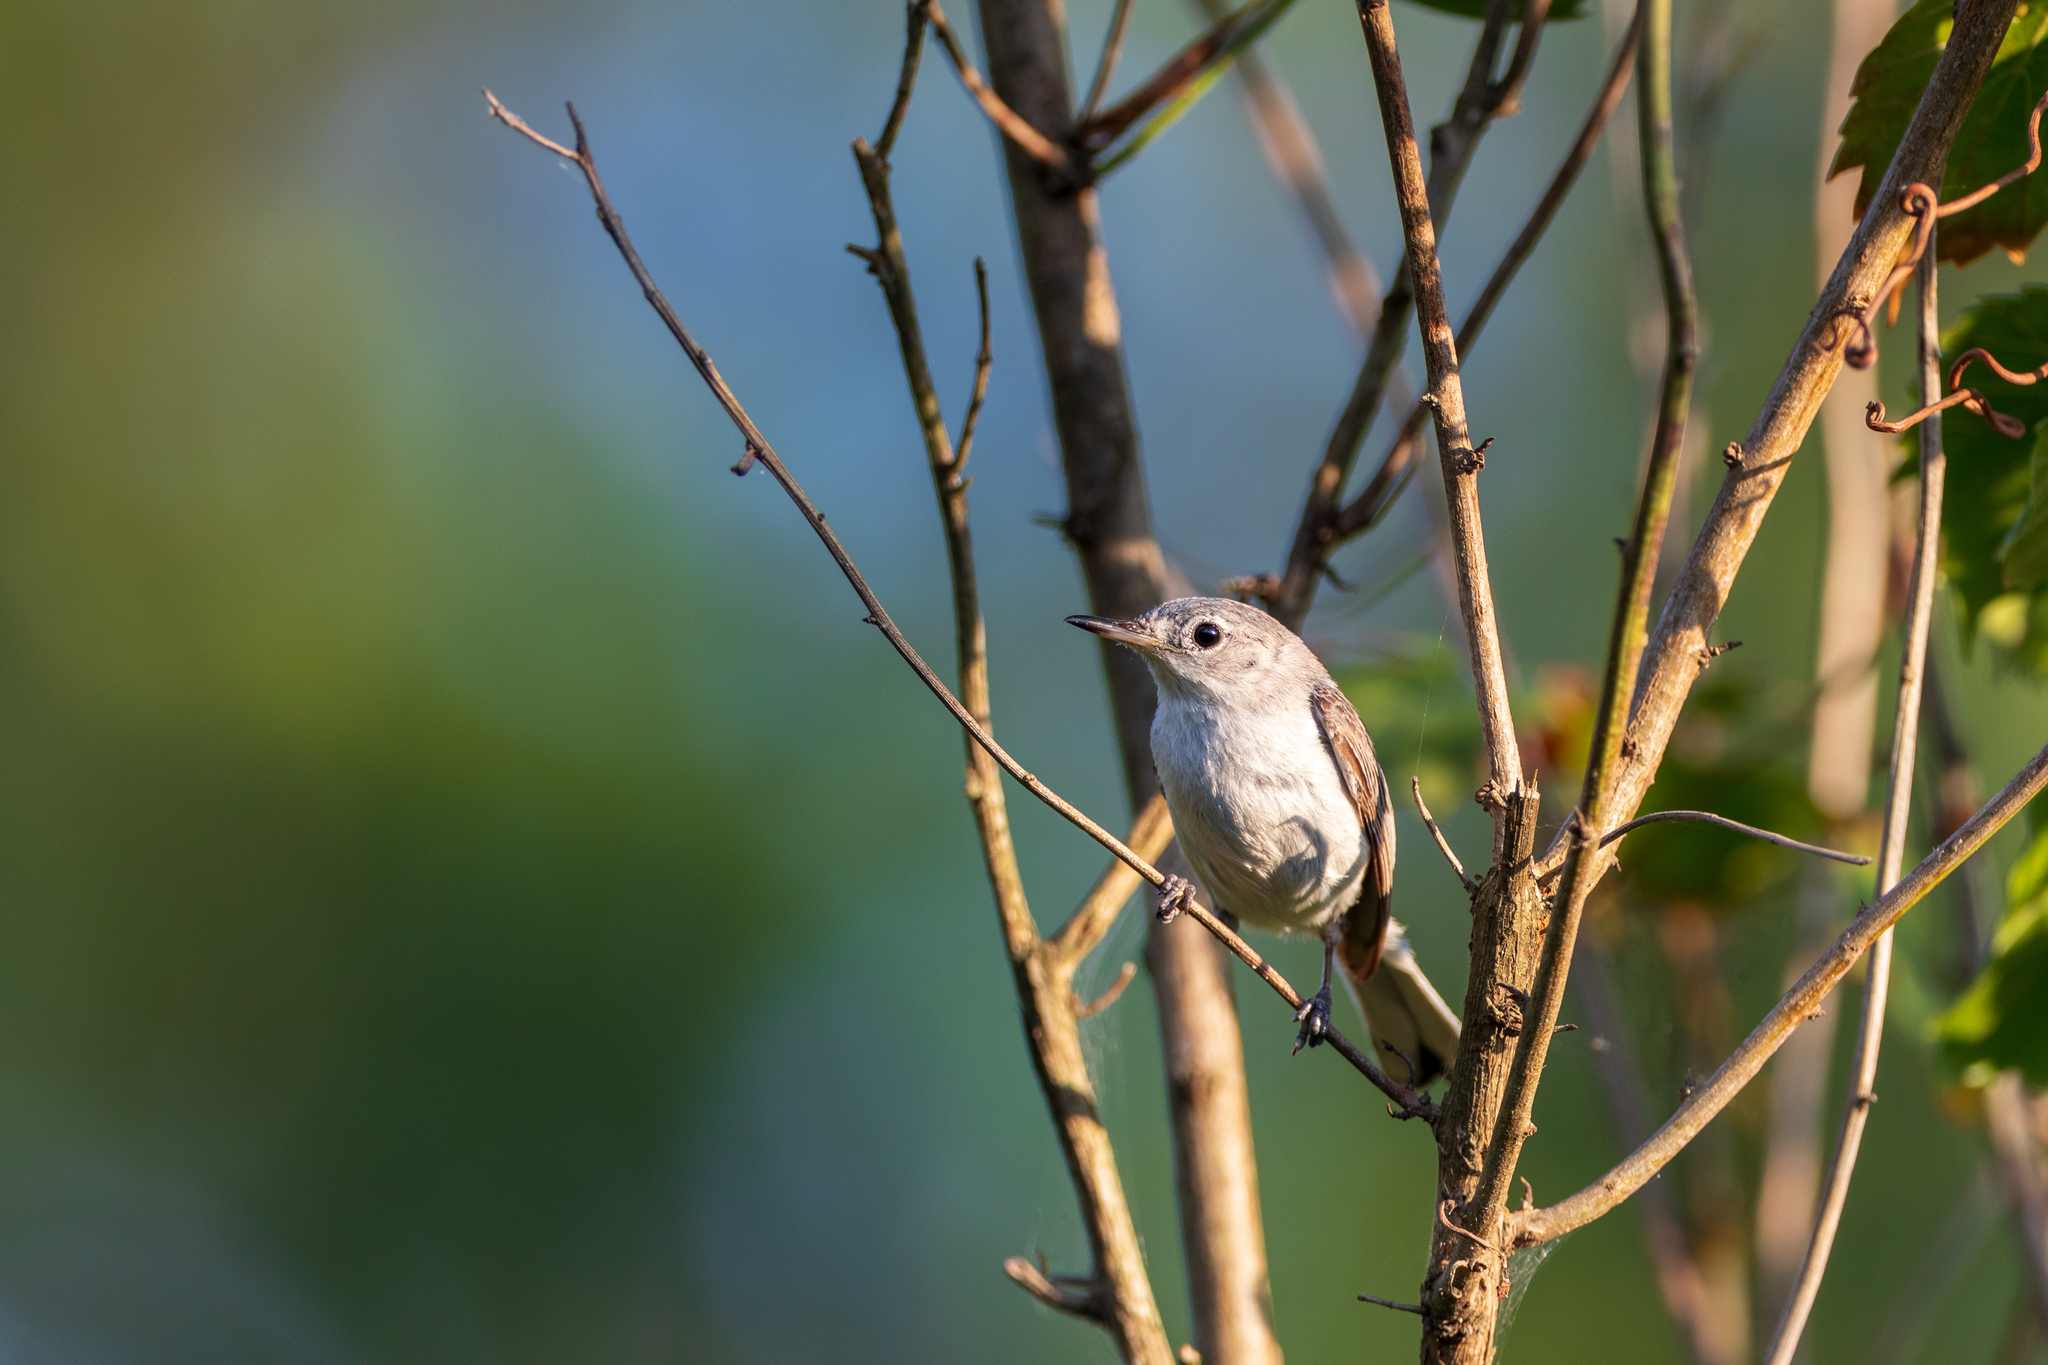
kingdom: Animalia
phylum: Chordata
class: Aves
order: Passeriformes
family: Polioptilidae
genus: Polioptila
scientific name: Polioptila caerulea
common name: Blue-gray gnatcatcher
